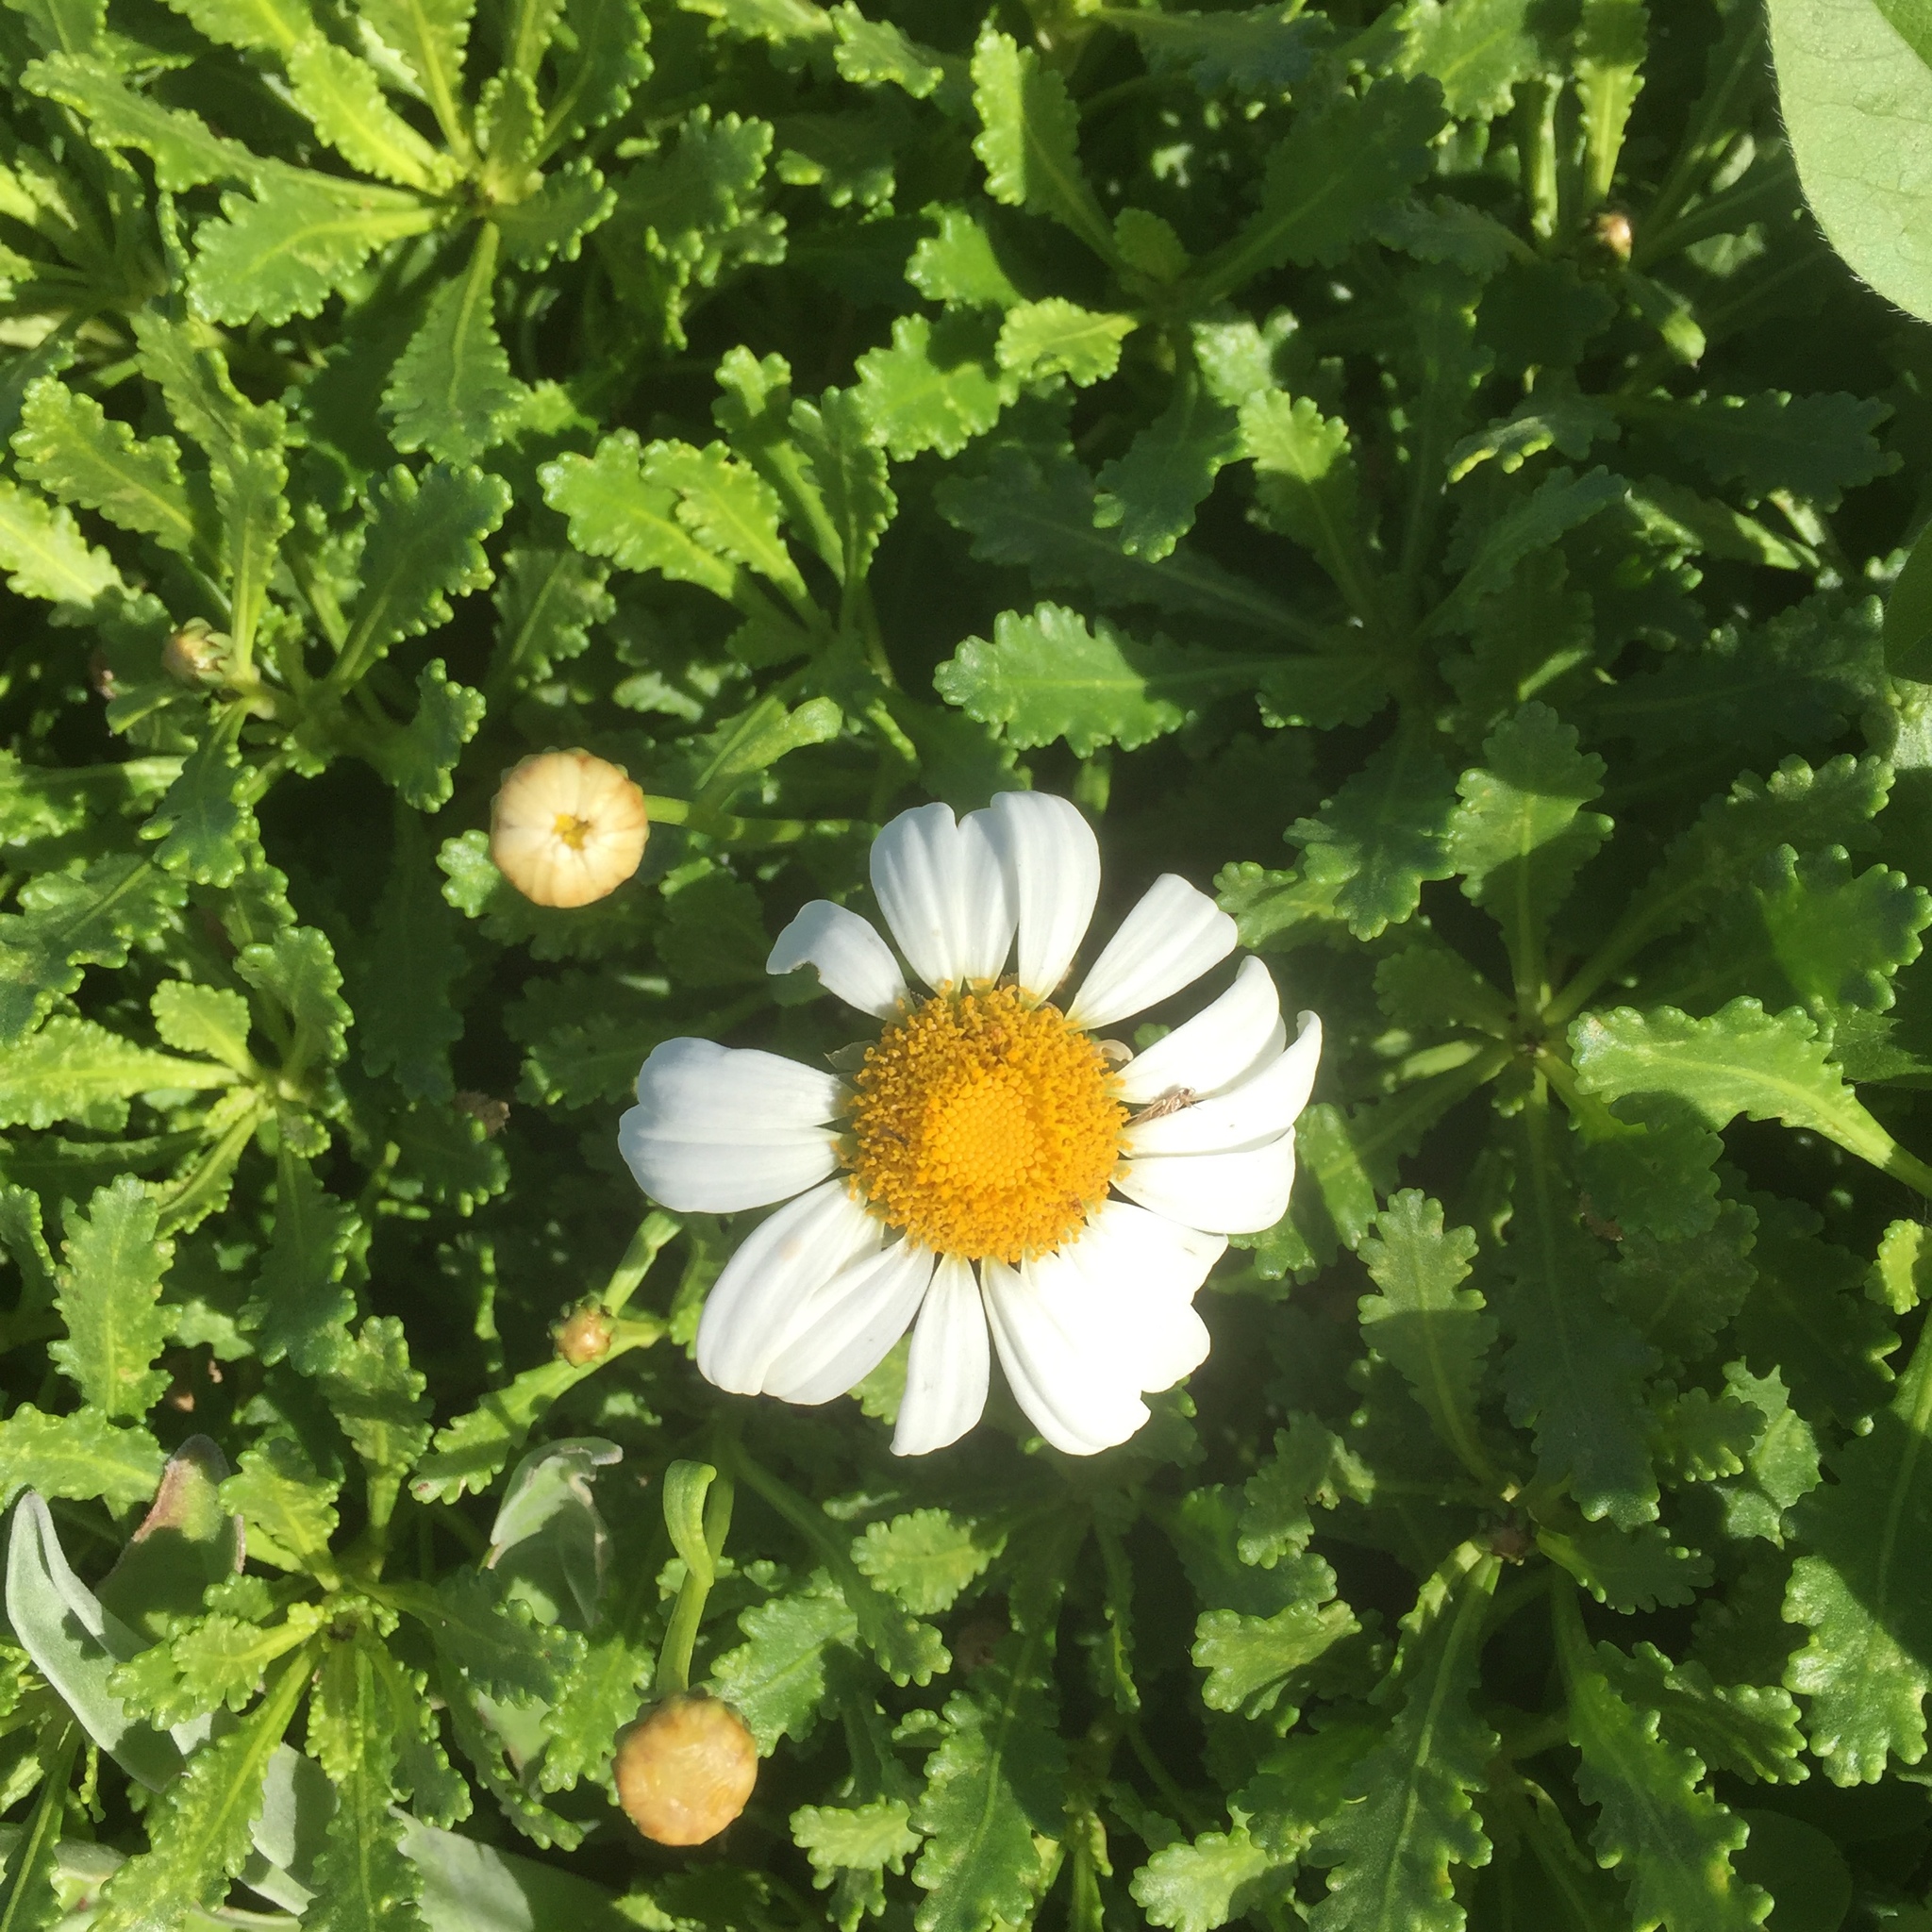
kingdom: Plantae
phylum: Tracheophyta
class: Magnoliopsida
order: Asterales
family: Asteraceae
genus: Argyranthemum
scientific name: Argyranthemum pinnatifidum
